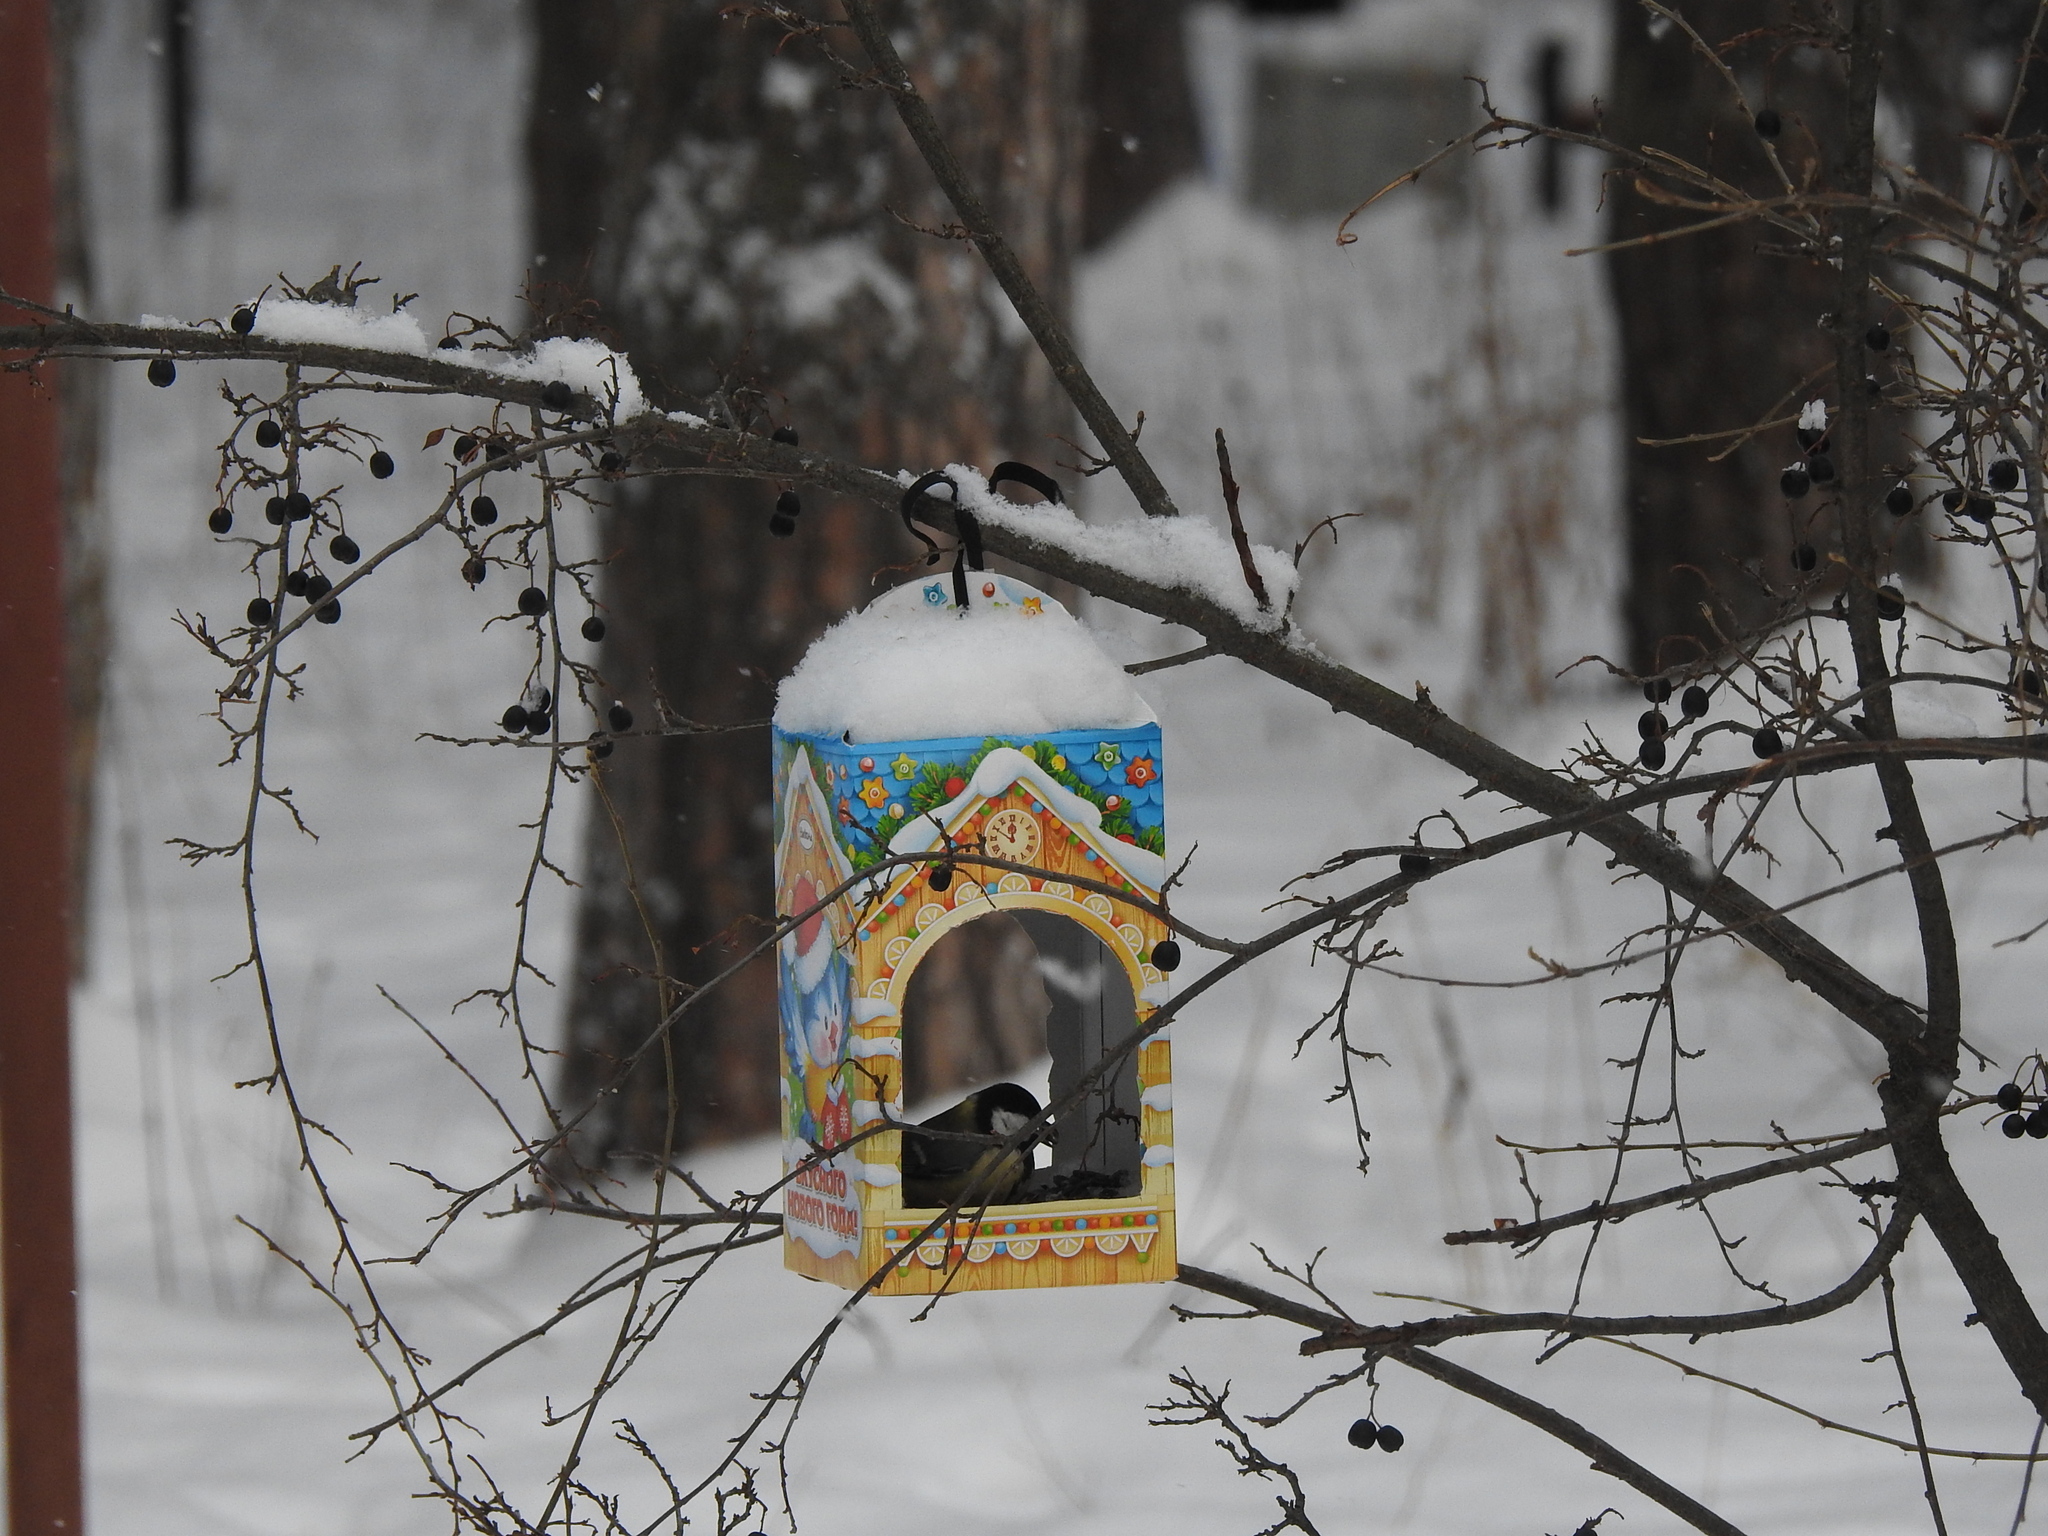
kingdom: Animalia
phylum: Chordata
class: Aves
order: Passeriformes
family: Paridae
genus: Parus
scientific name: Parus major
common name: Great tit
